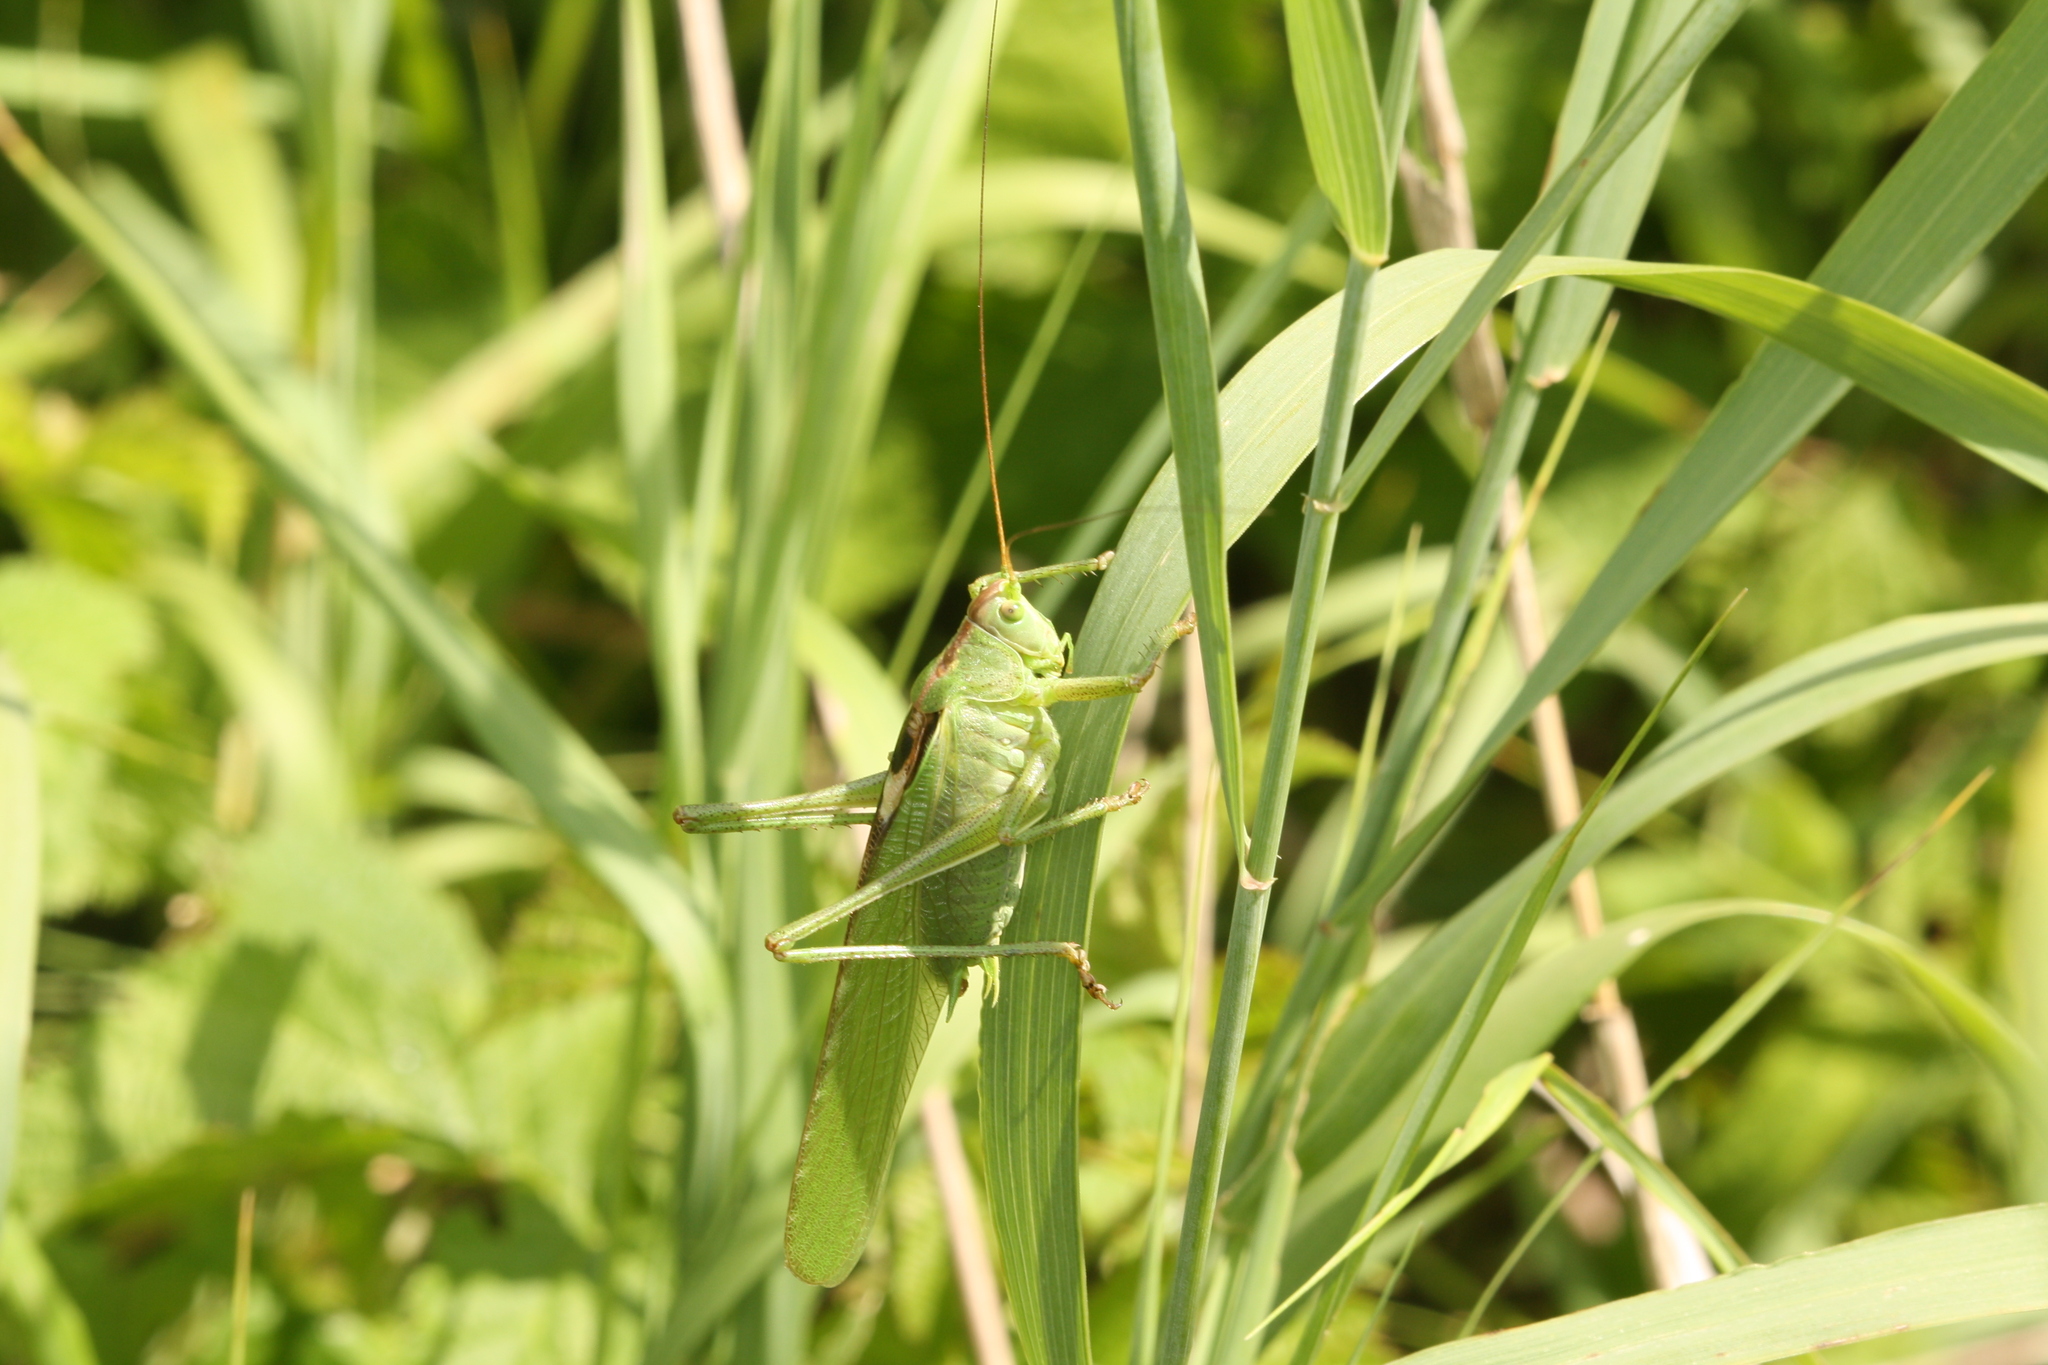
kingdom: Animalia
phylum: Arthropoda
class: Insecta
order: Orthoptera
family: Tettigoniidae
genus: Tettigonia
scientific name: Tettigonia viridissima
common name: Great green bush-cricket
